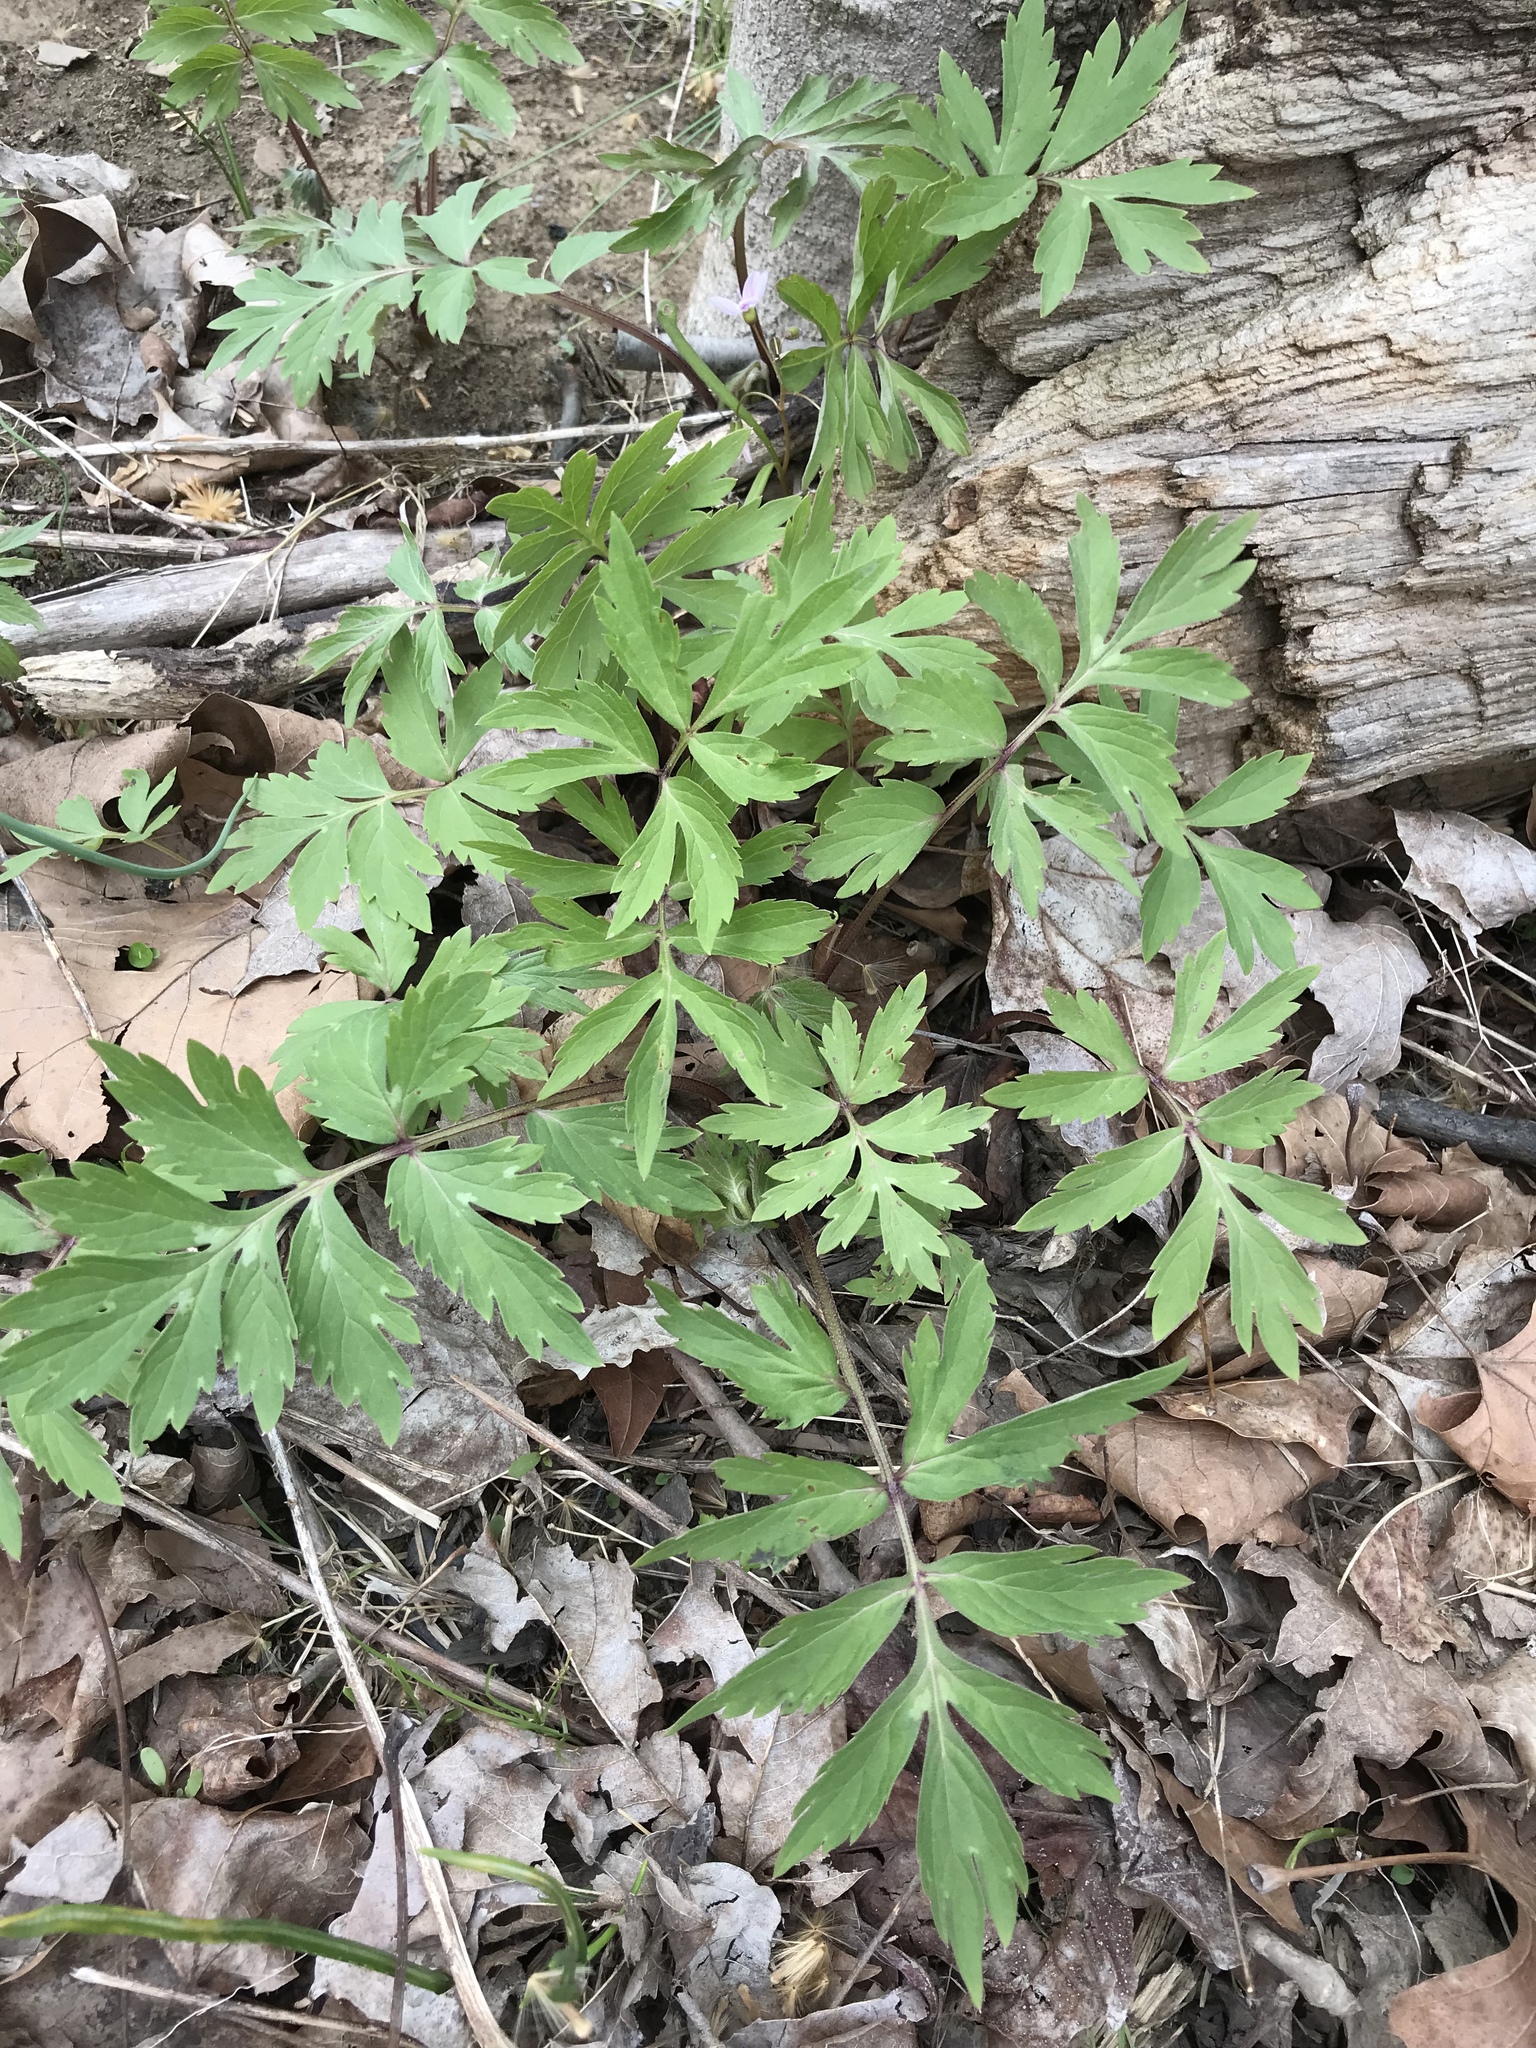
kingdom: Plantae
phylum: Tracheophyta
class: Magnoliopsida
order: Boraginales
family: Hydrophyllaceae
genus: Hydrophyllum
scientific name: Hydrophyllum virginianum
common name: Virginia waterleaf
